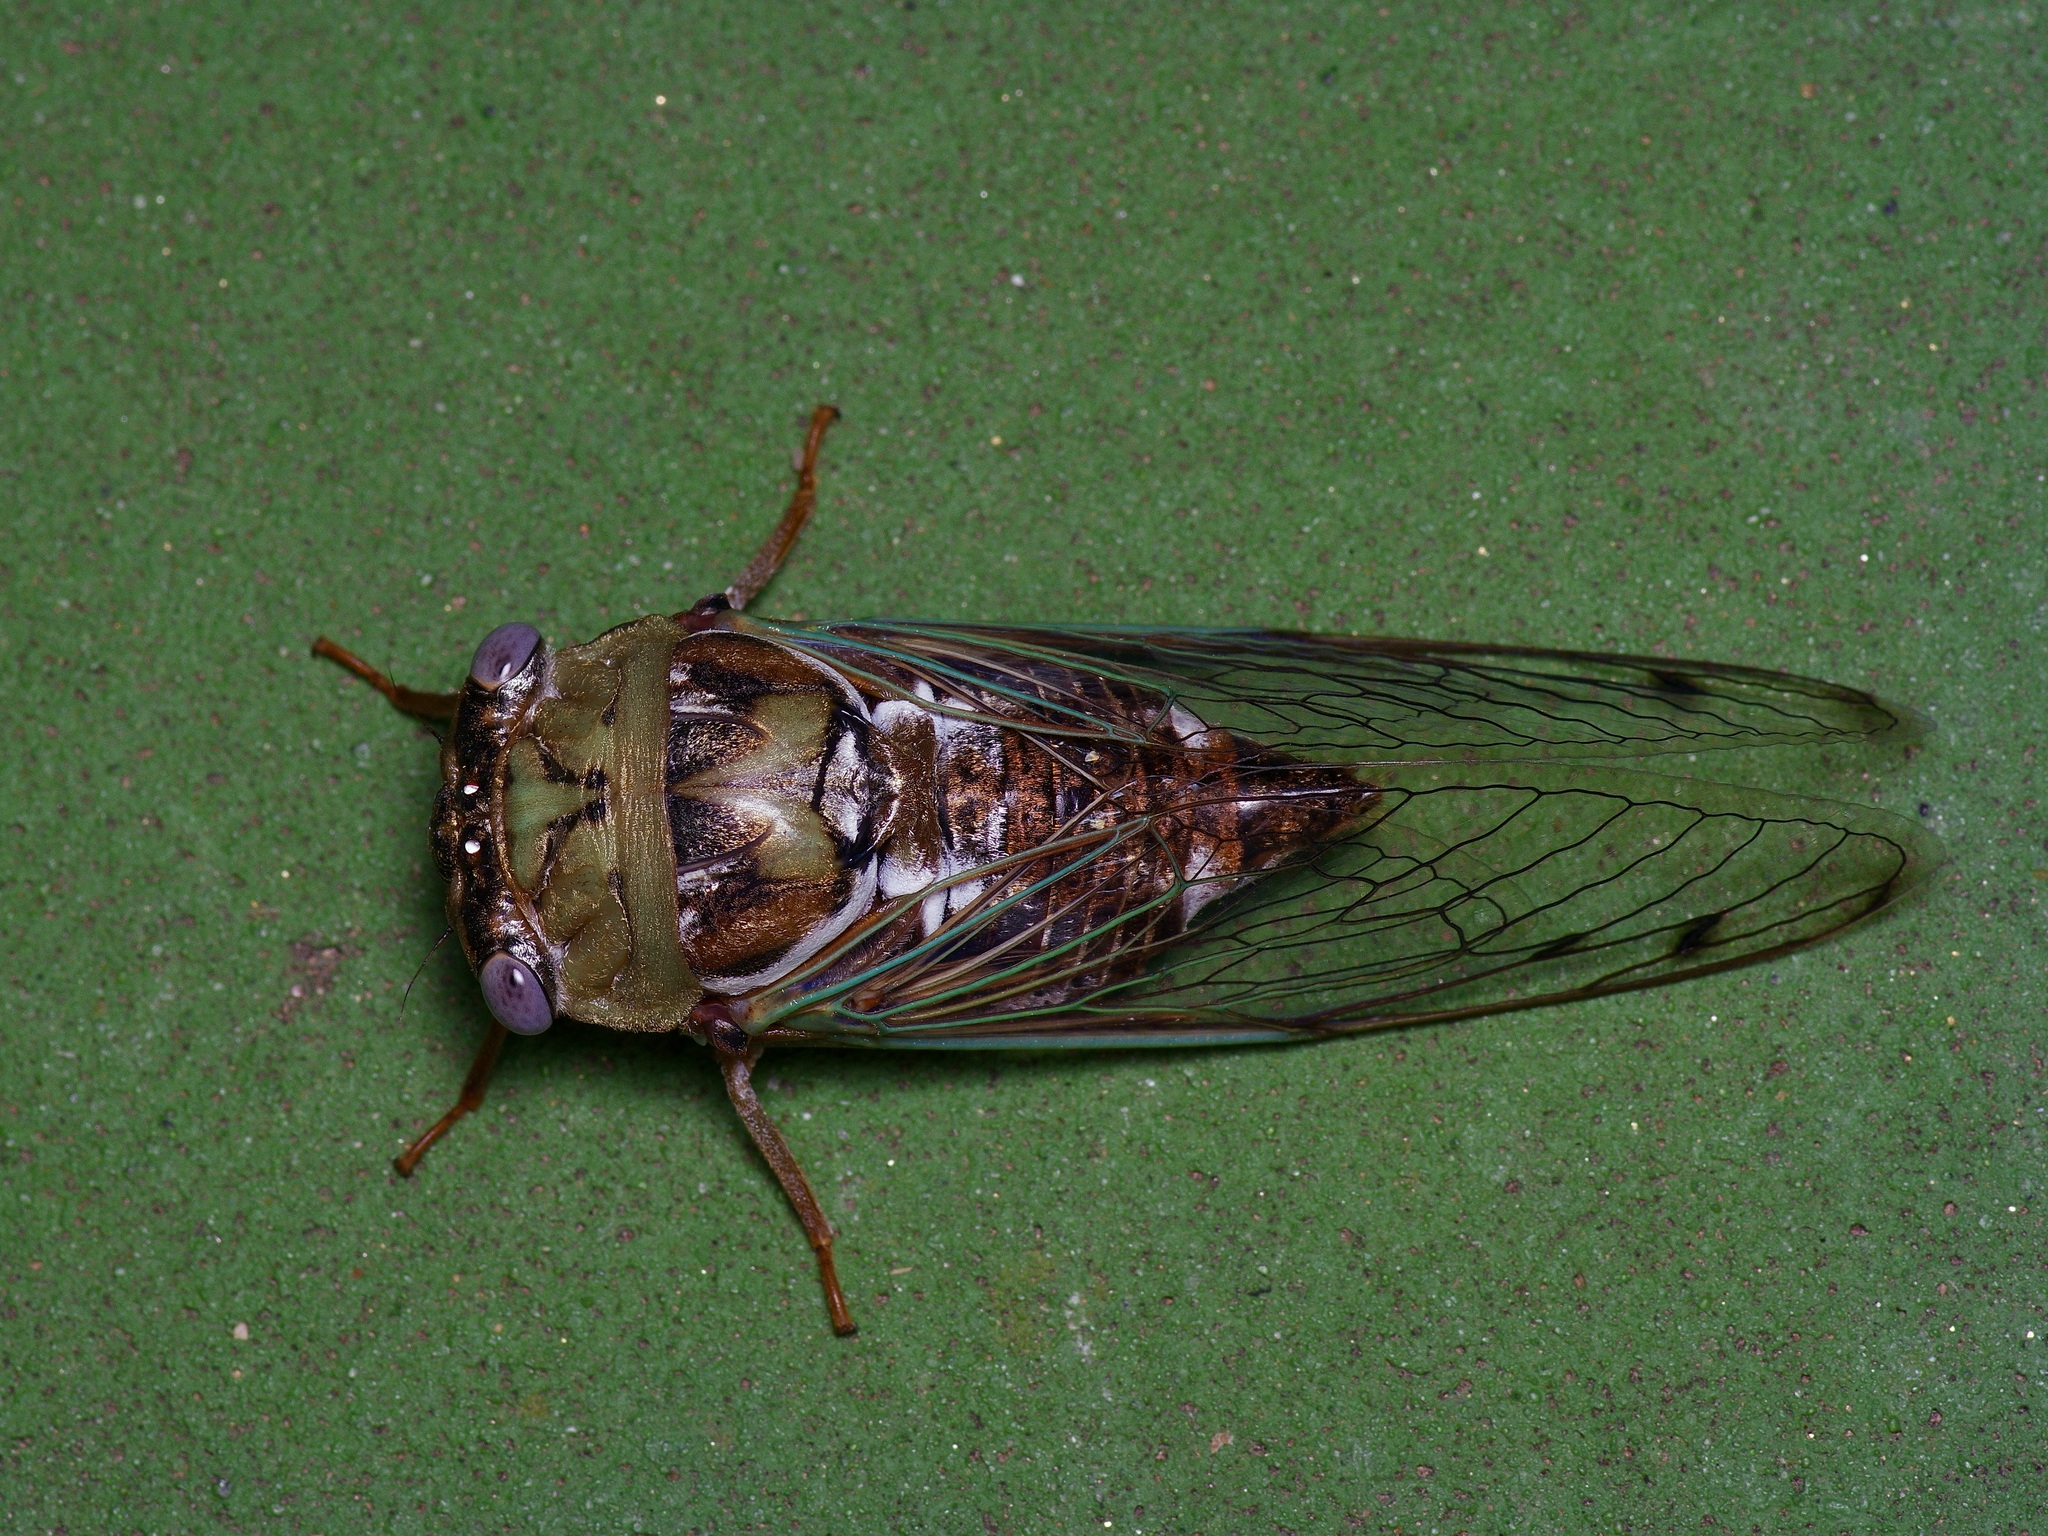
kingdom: Animalia
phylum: Arthropoda
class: Insecta
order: Hemiptera
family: Cicadidae
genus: Megatibicen
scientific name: Megatibicen resh
